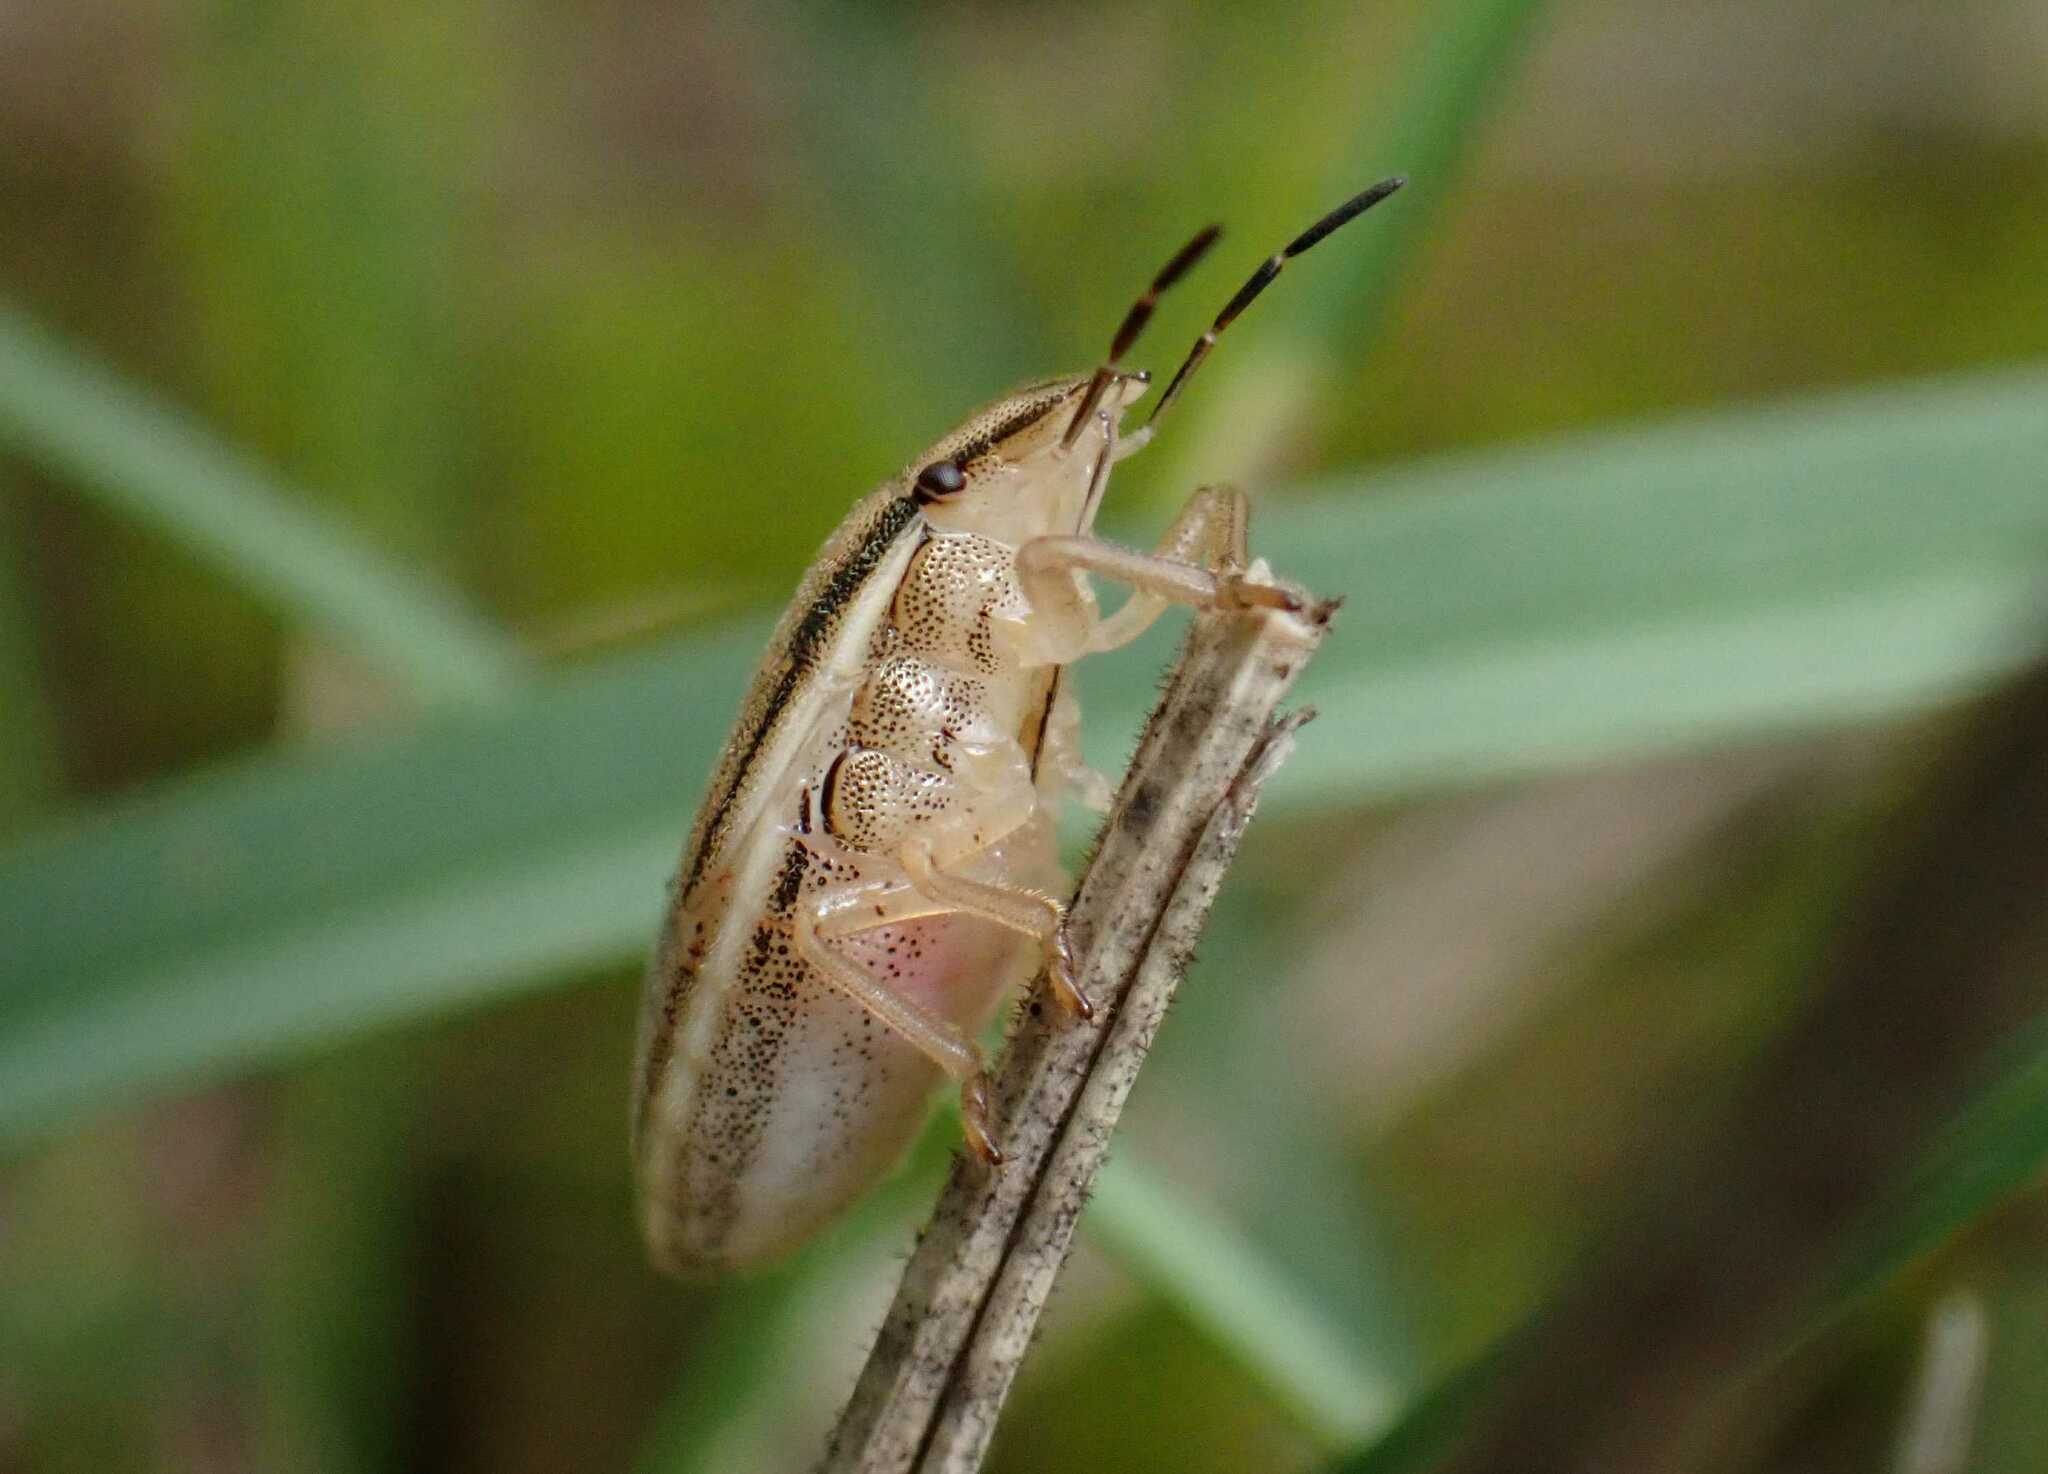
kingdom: Animalia
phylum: Arthropoda
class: Insecta
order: Hemiptera
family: Pentatomidae
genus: Aelia
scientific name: Aelia acuminata
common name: Bishop's mitre
